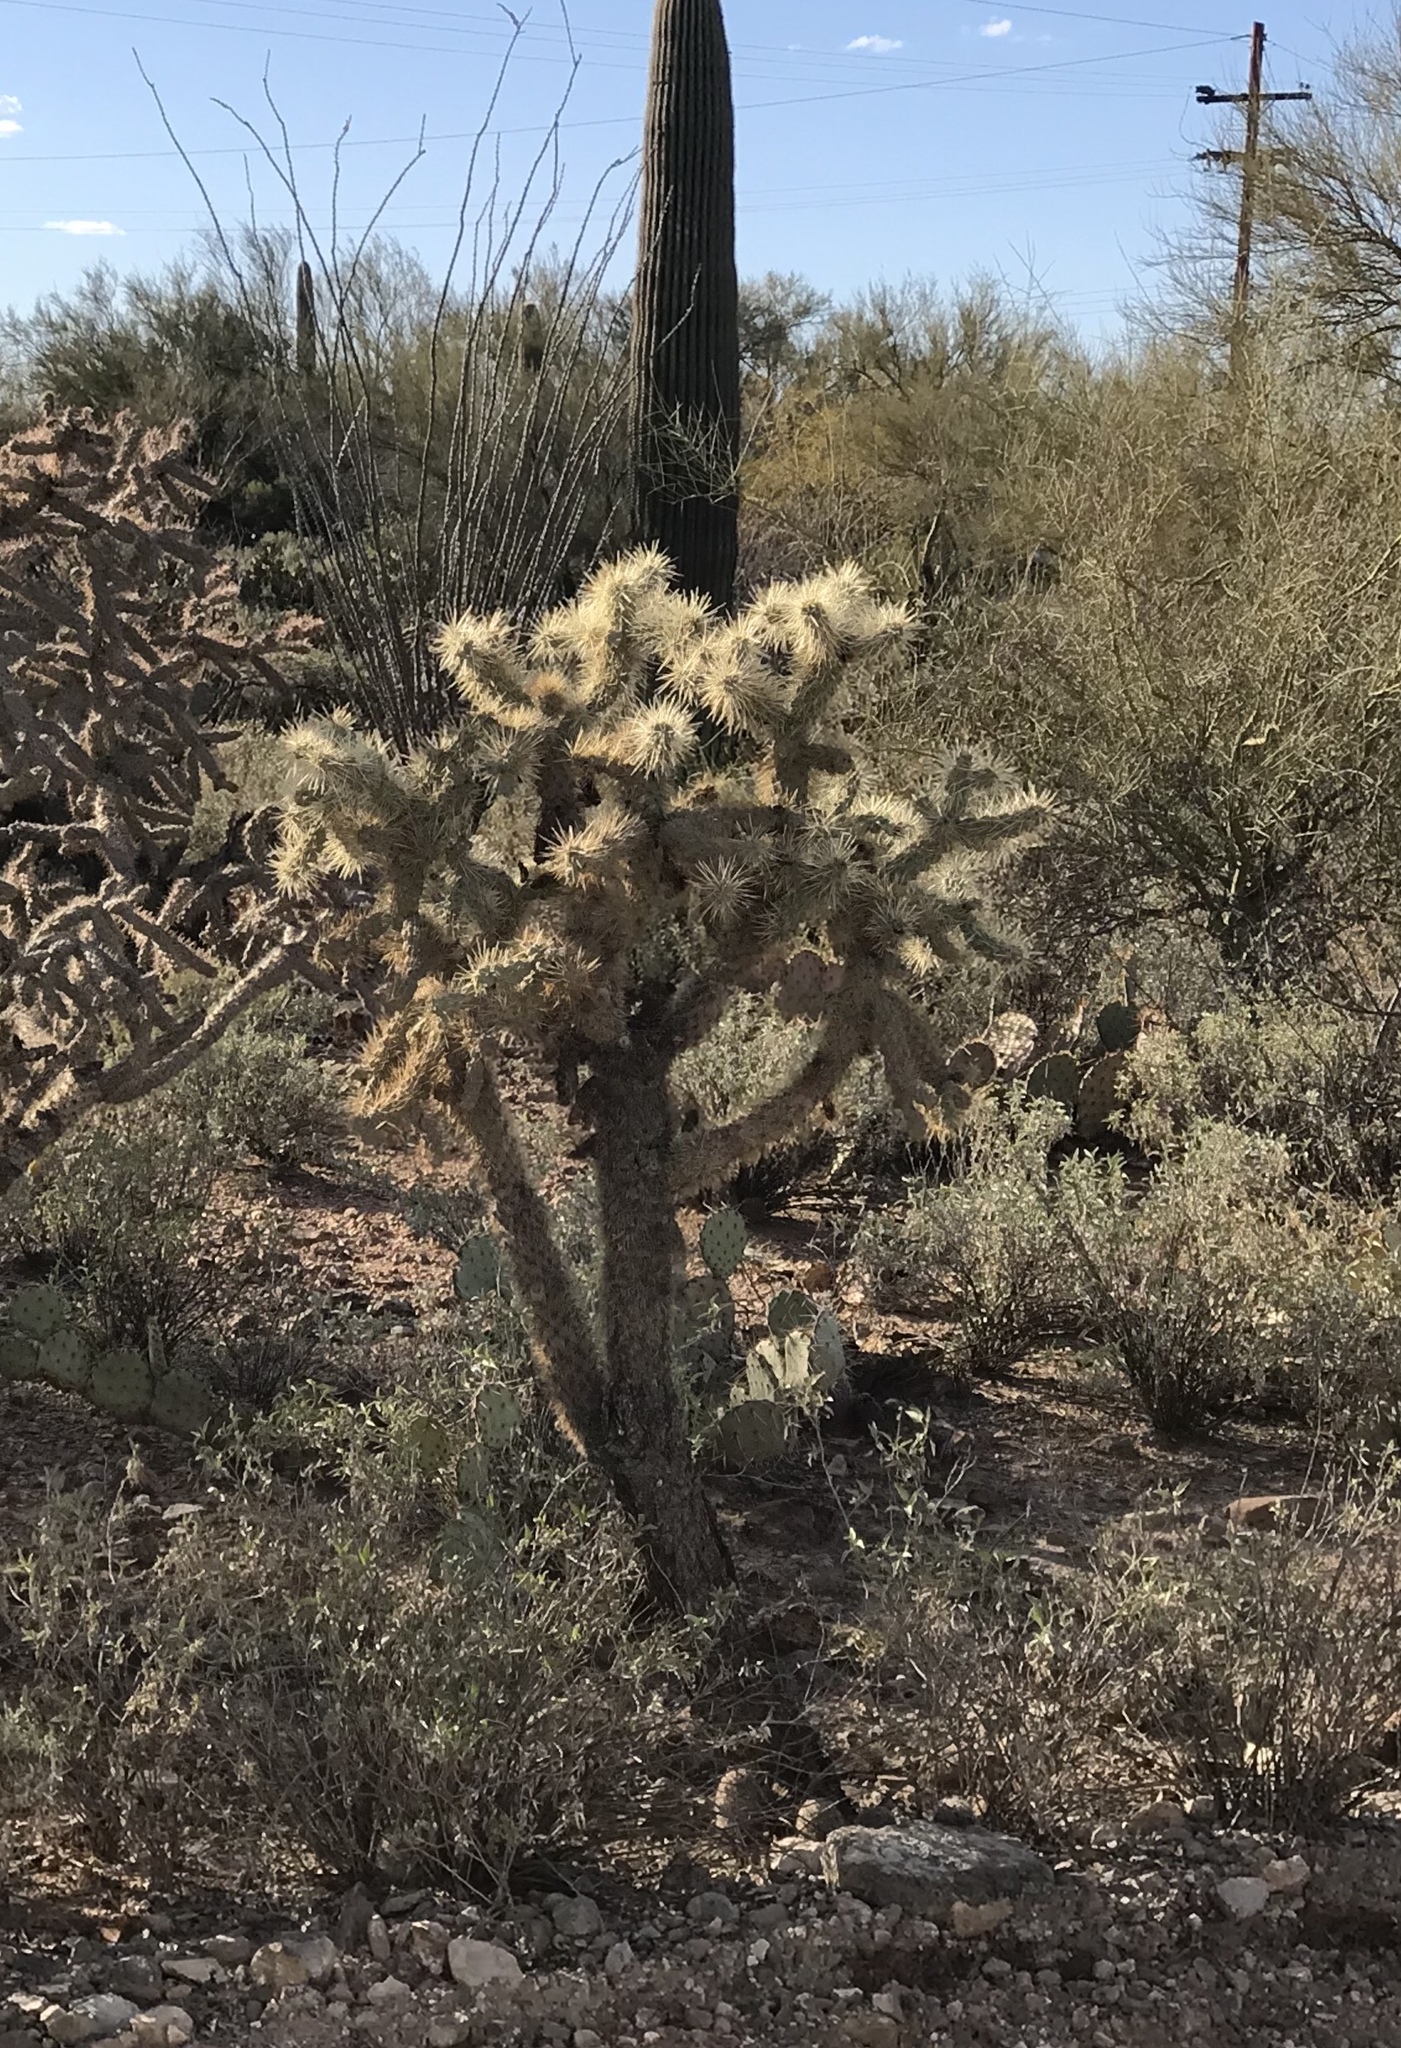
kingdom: Plantae
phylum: Tracheophyta
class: Magnoliopsida
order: Caryophyllales
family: Cactaceae
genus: Cylindropuntia
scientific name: Cylindropuntia fulgida
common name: Jumping cholla
